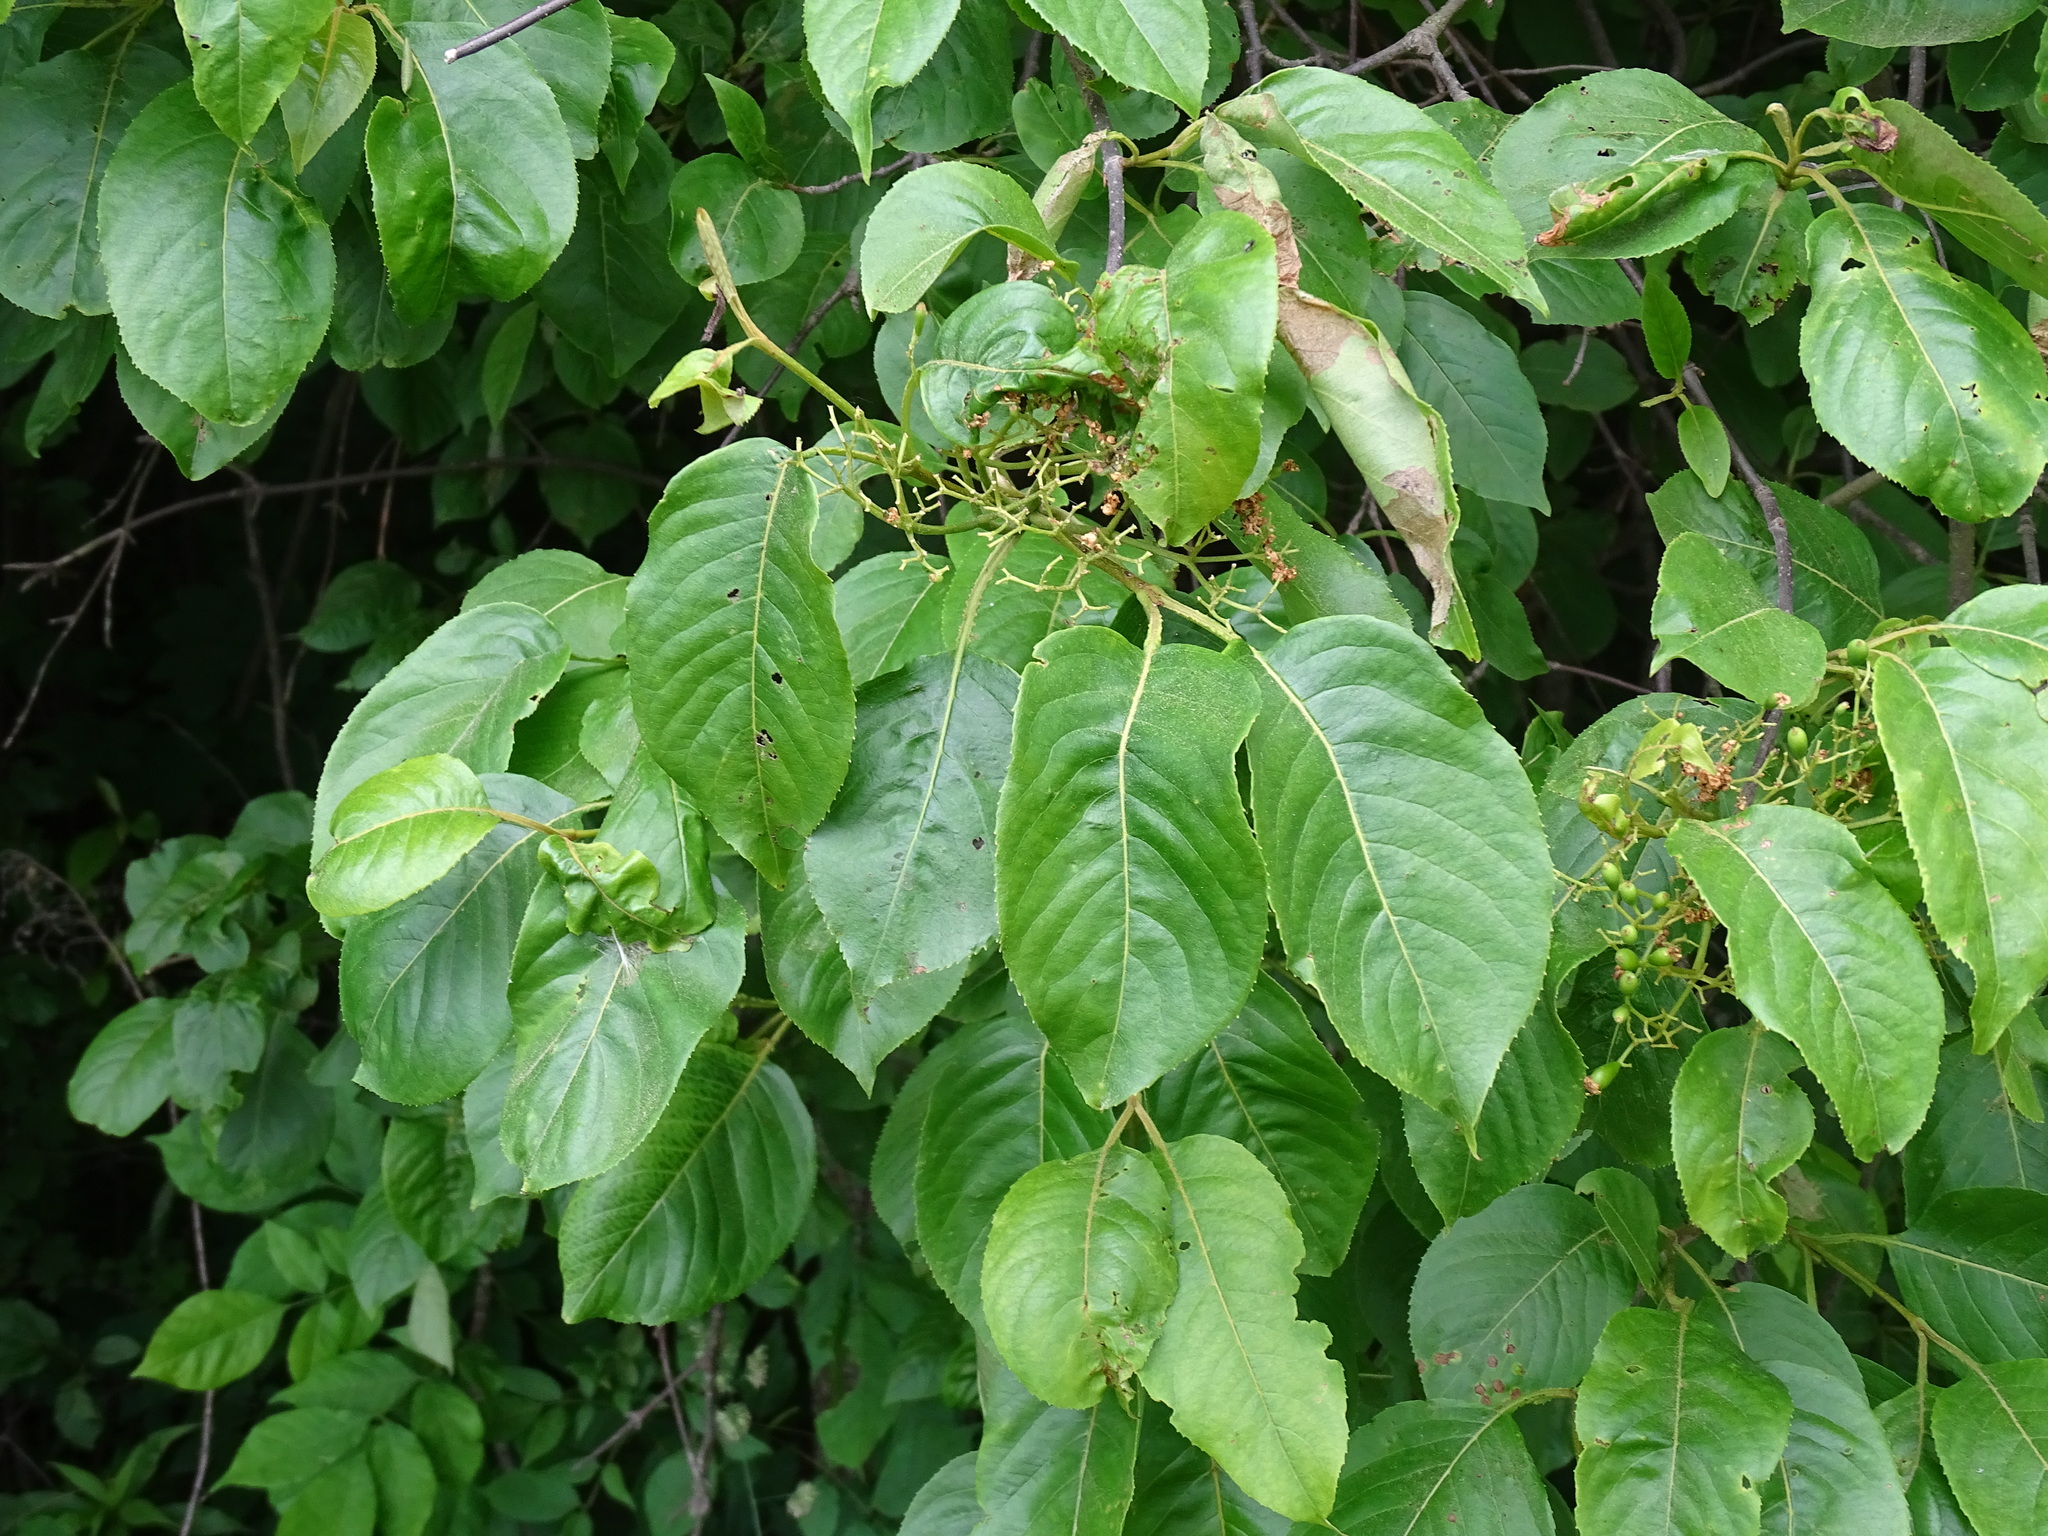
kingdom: Plantae
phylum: Tracheophyta
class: Magnoliopsida
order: Dipsacales
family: Viburnaceae
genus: Viburnum
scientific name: Viburnum lentago
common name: Black haw
